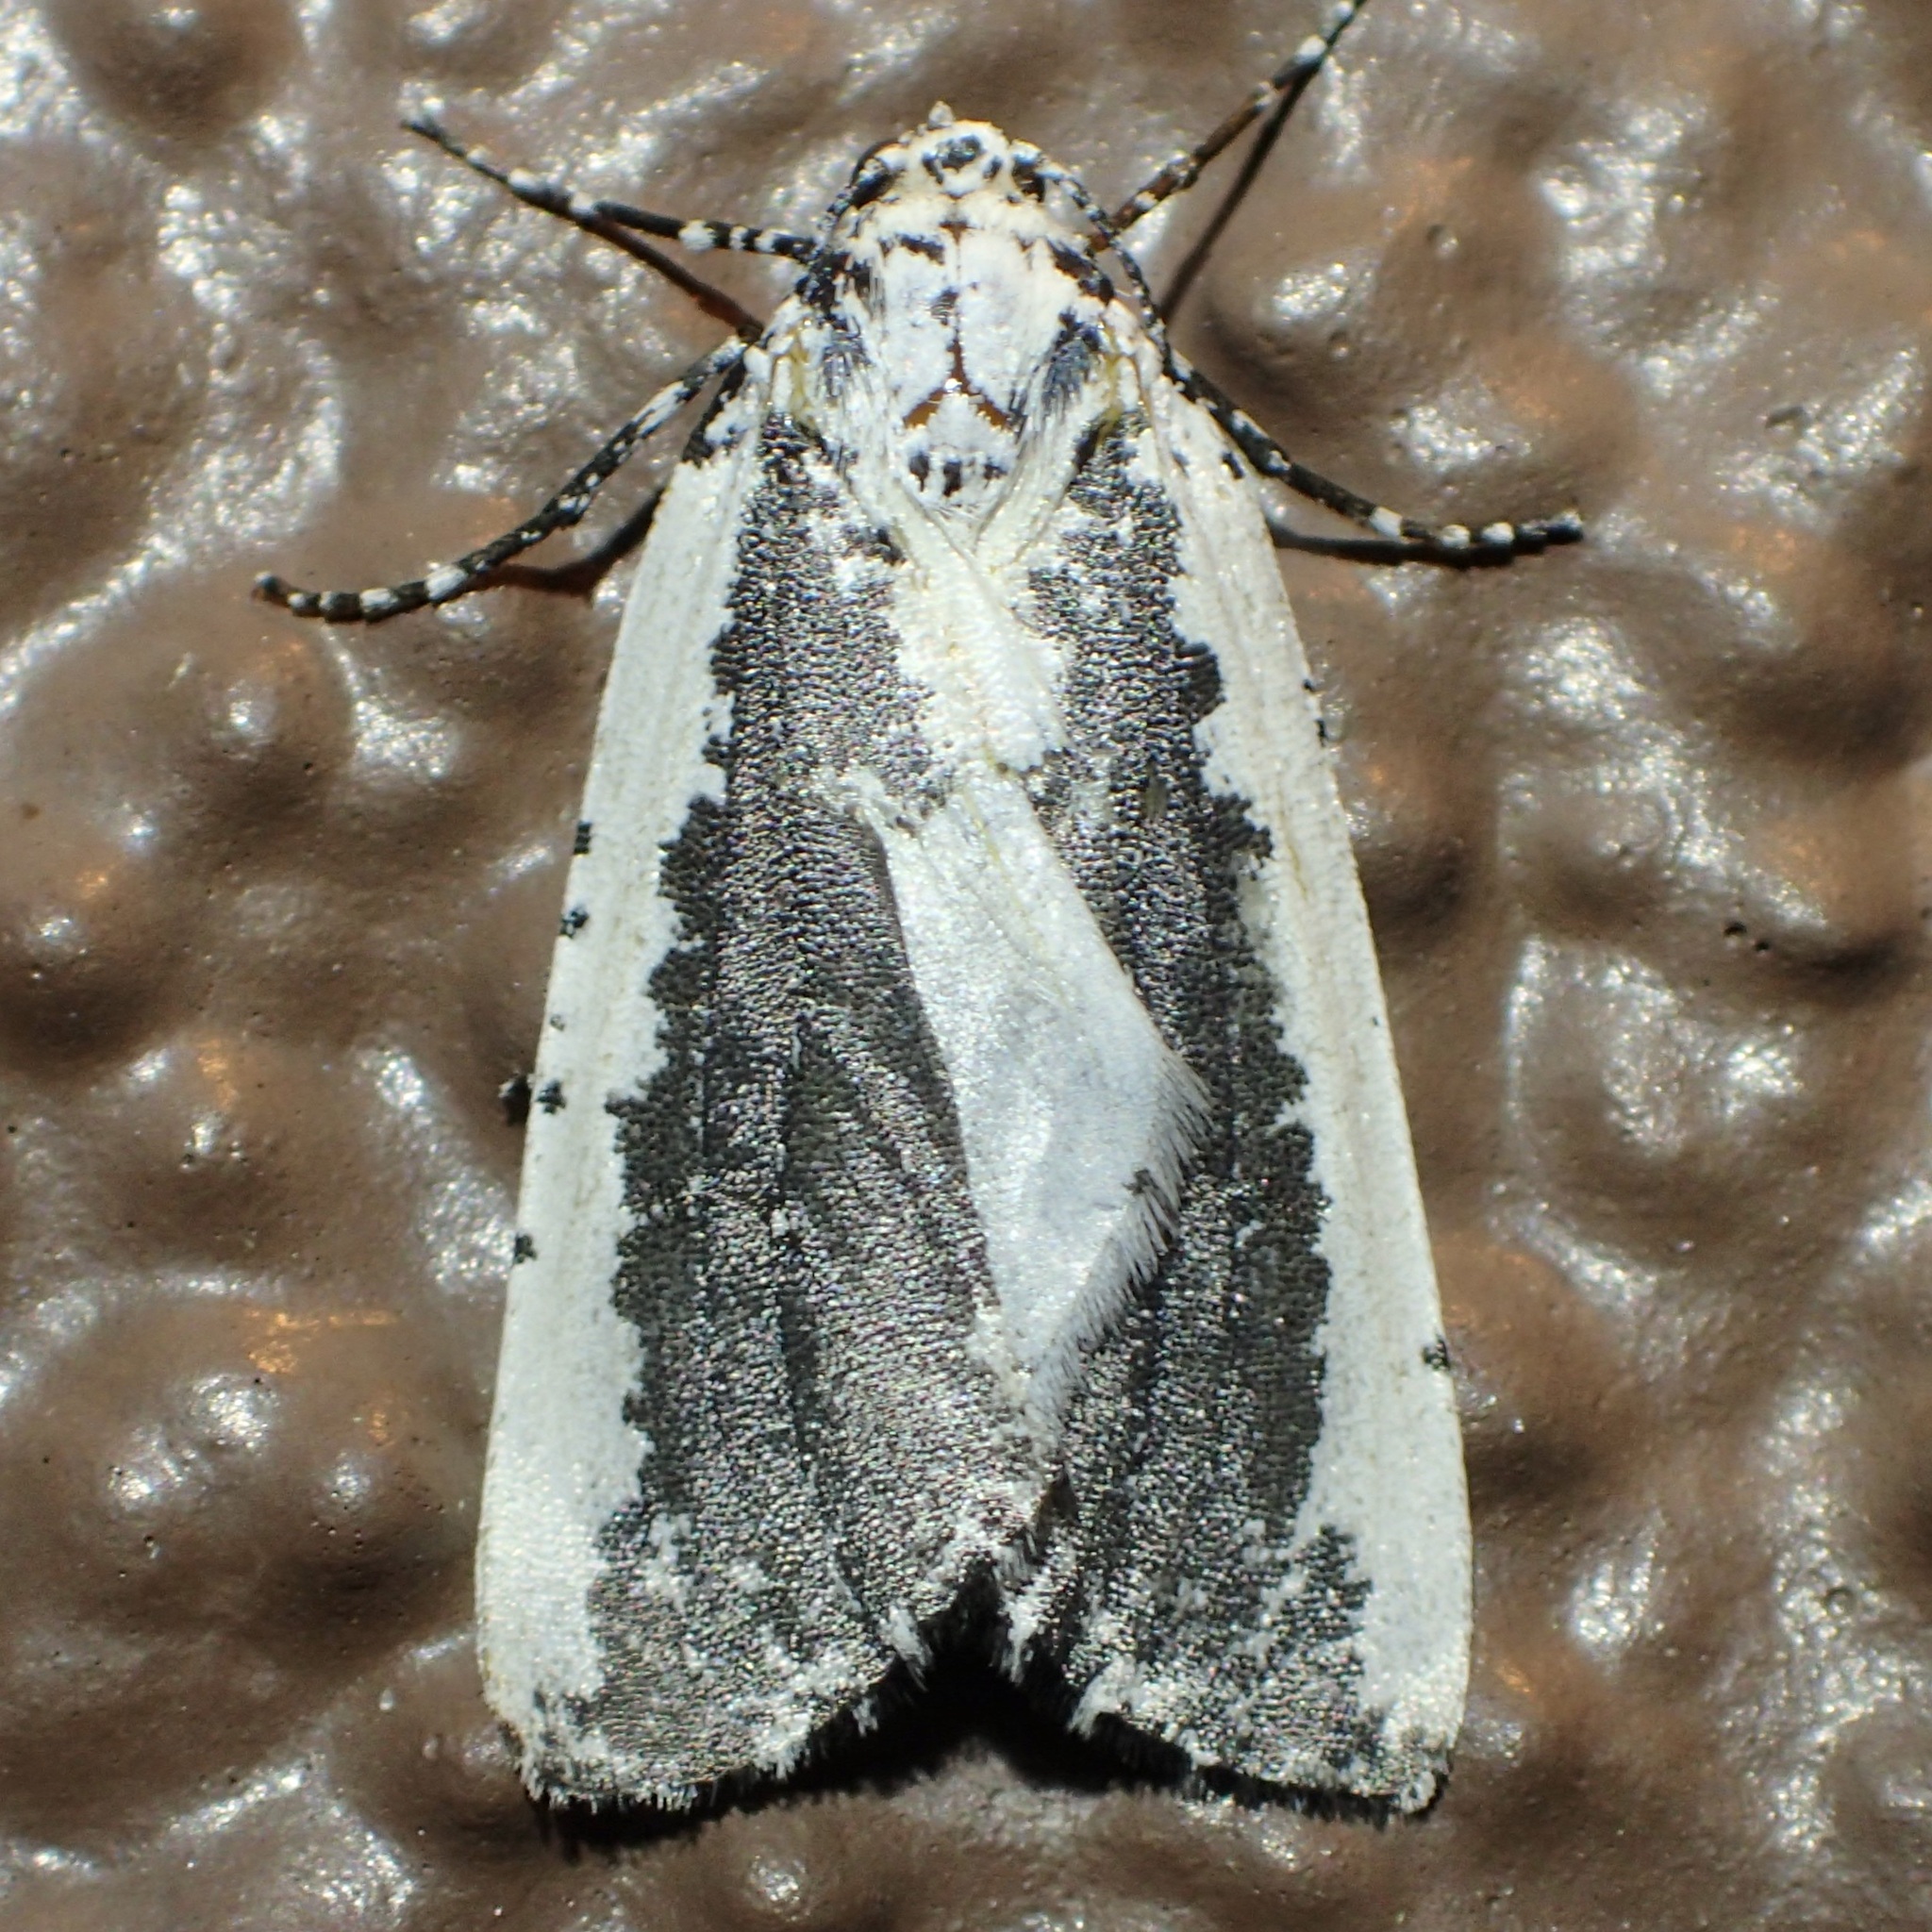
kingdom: Animalia
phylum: Arthropoda
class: Insecta
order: Lepidoptera
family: Geometridae
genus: Eucaterva
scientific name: Eucaterva variaria
